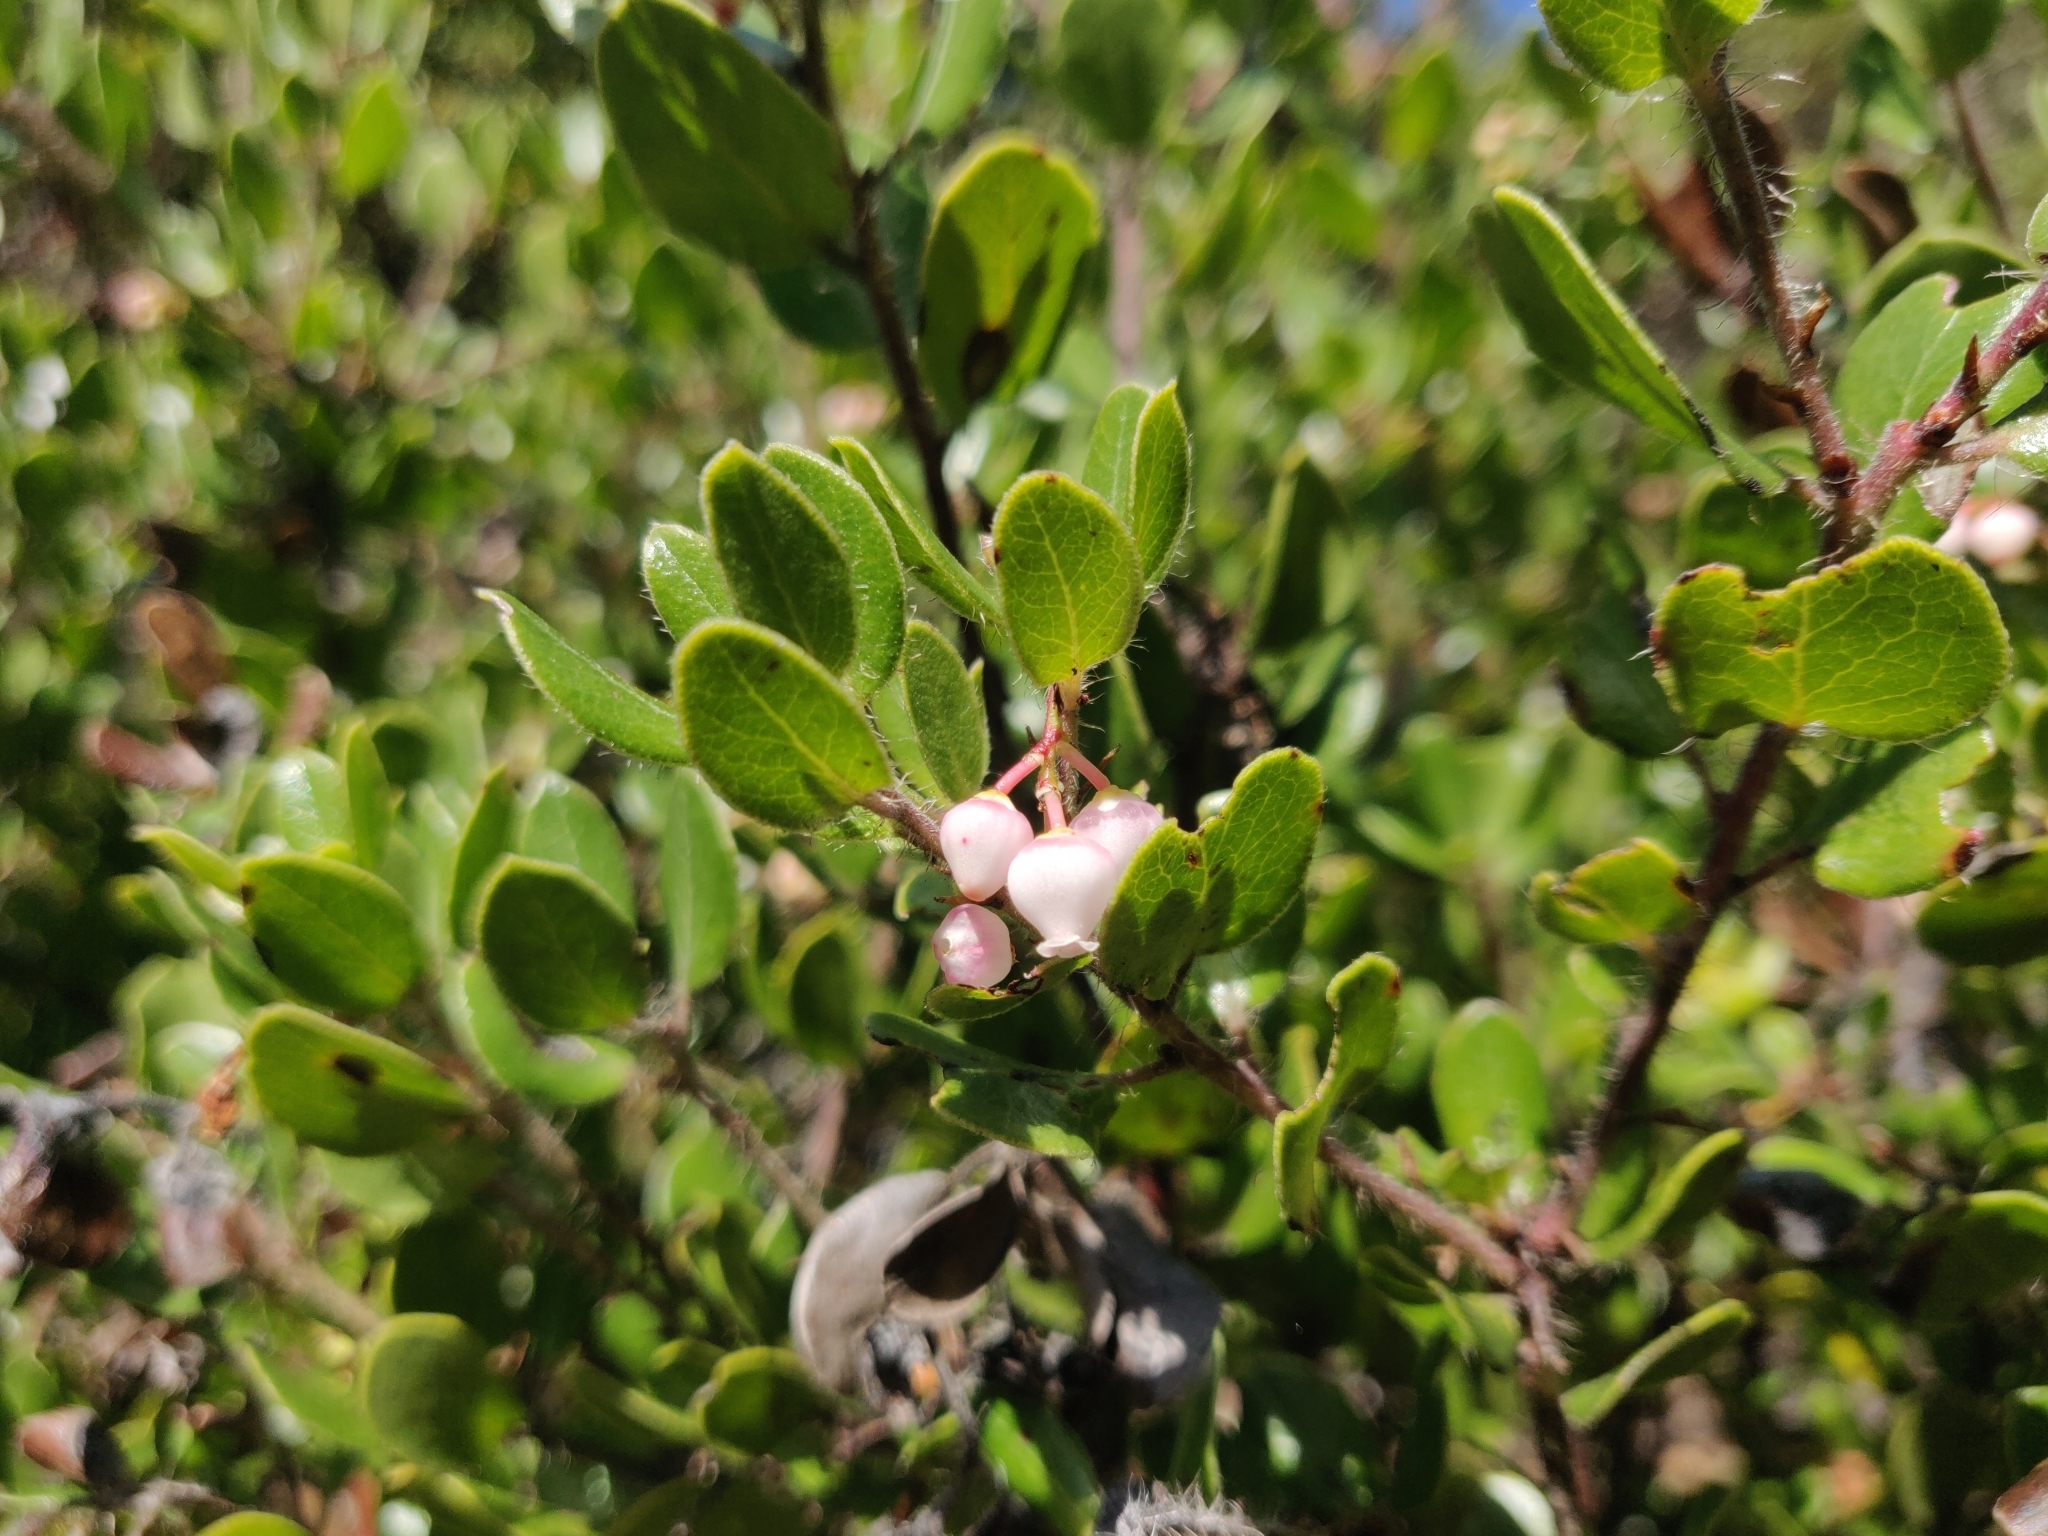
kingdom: Plantae
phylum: Tracheophyta
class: Magnoliopsida
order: Ericales
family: Ericaceae
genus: Arctostaphylos
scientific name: Arctostaphylos nummularia
